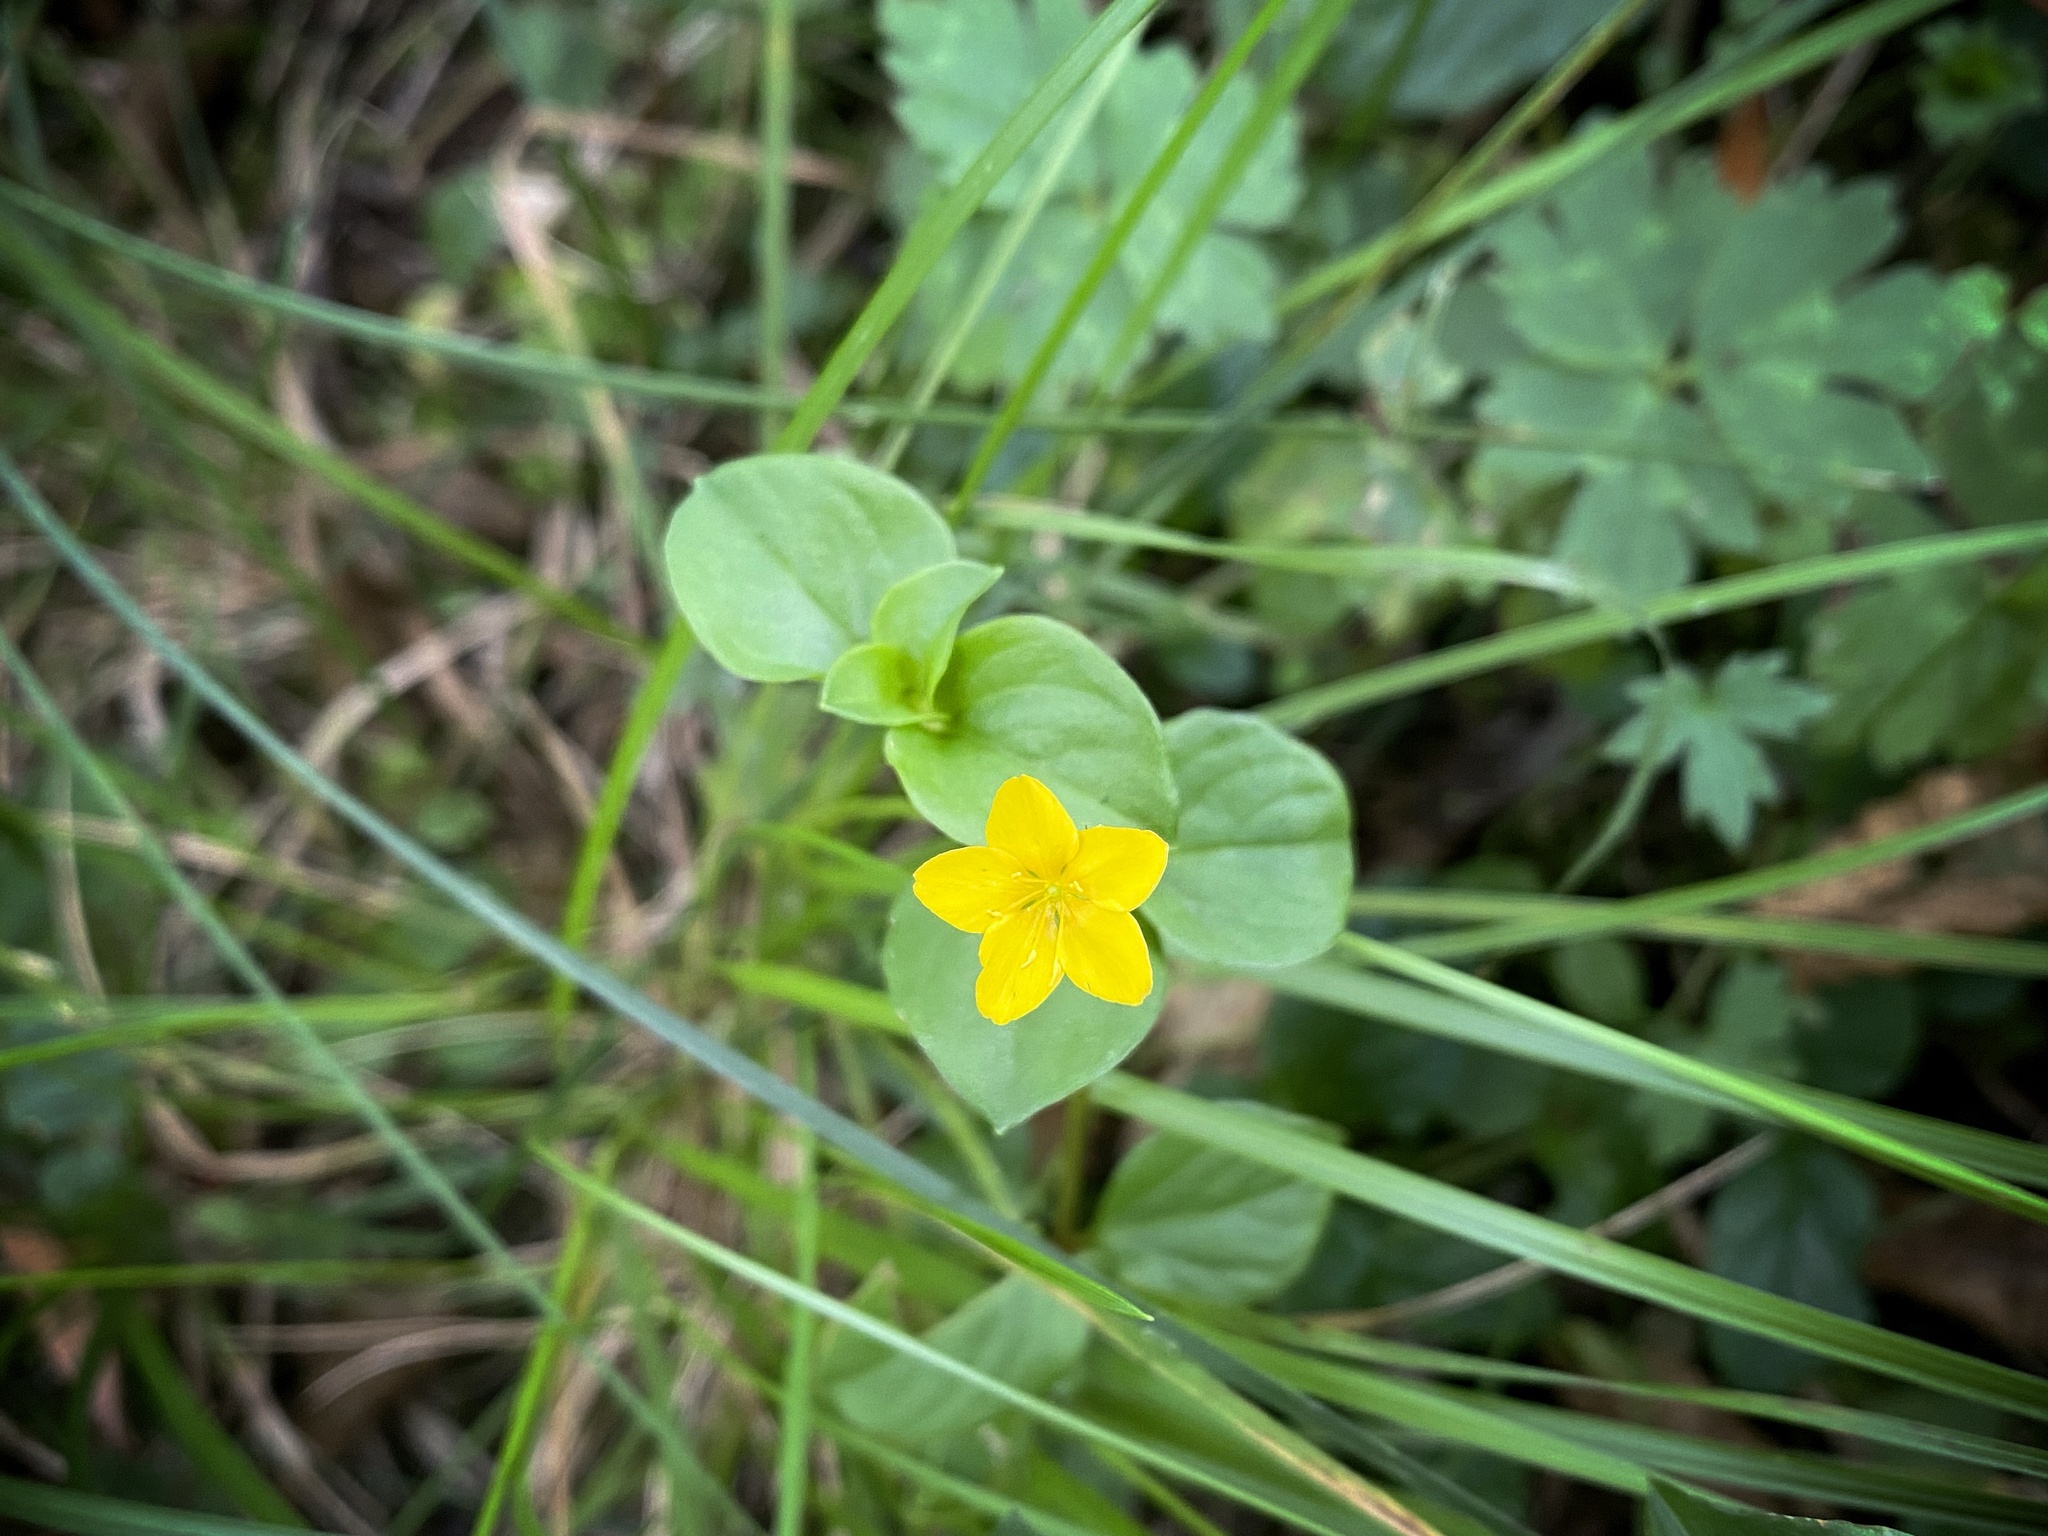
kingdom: Plantae
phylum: Tracheophyta
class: Magnoliopsida
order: Ericales
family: Primulaceae
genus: Lysimachia
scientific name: Lysimachia nemorum
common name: Yellow pimpernel
